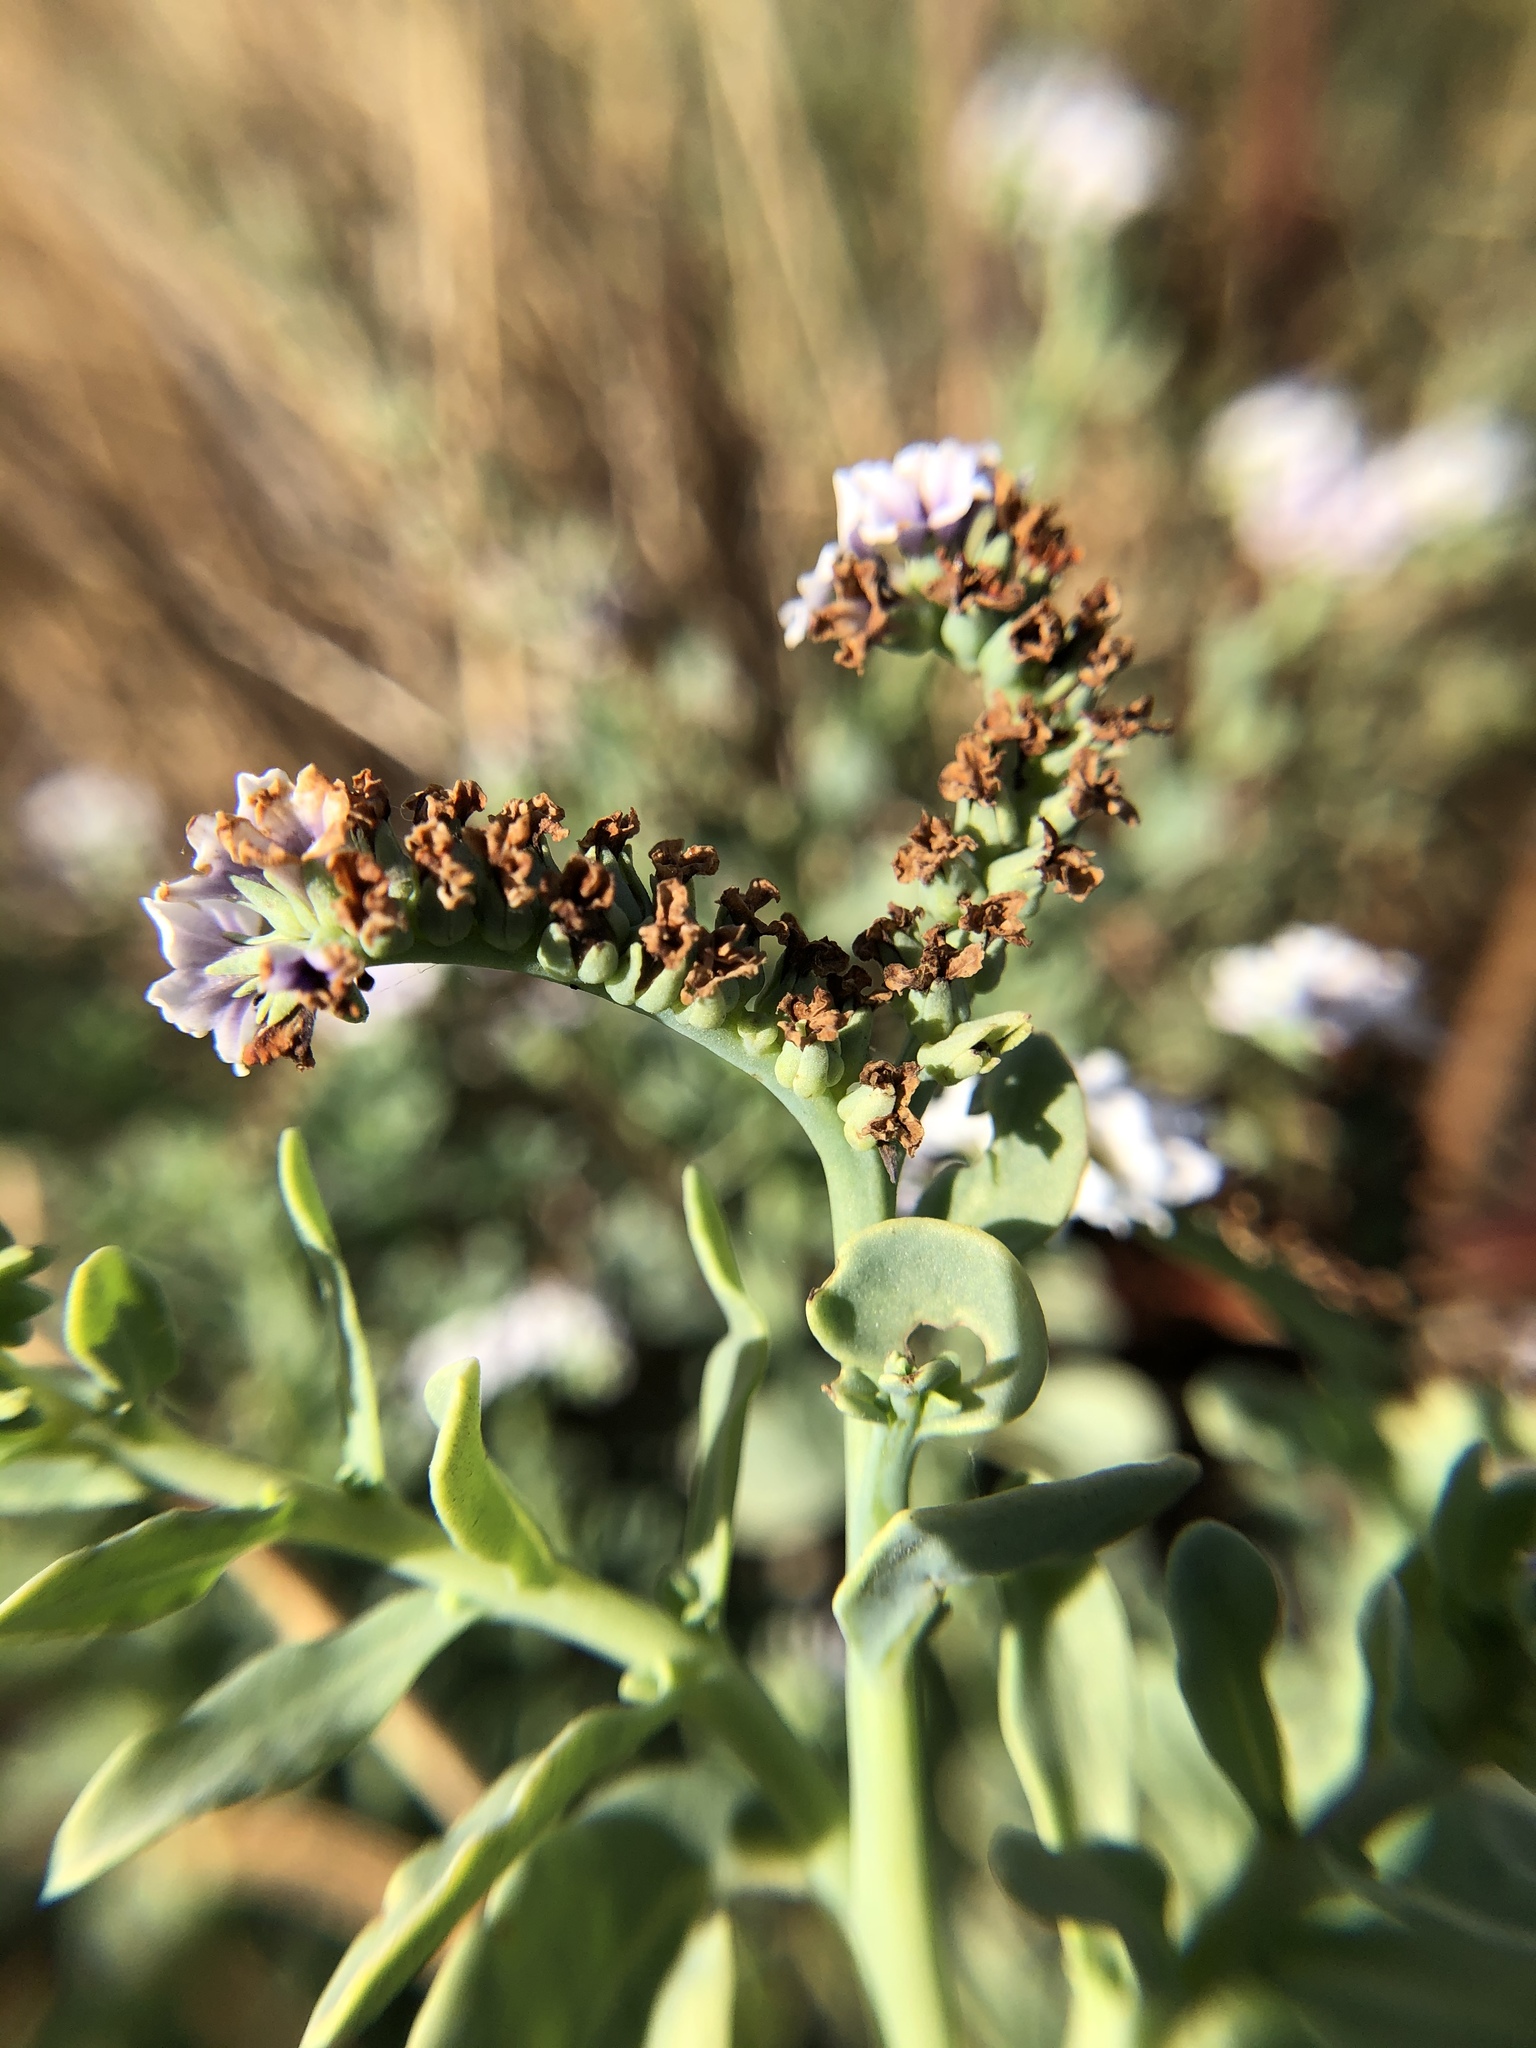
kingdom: Plantae
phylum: Tracheophyta
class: Magnoliopsida
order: Boraginales
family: Heliotropiaceae
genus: Heliotropium
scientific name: Heliotropium curassavicum
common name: Seaside heliotrope
